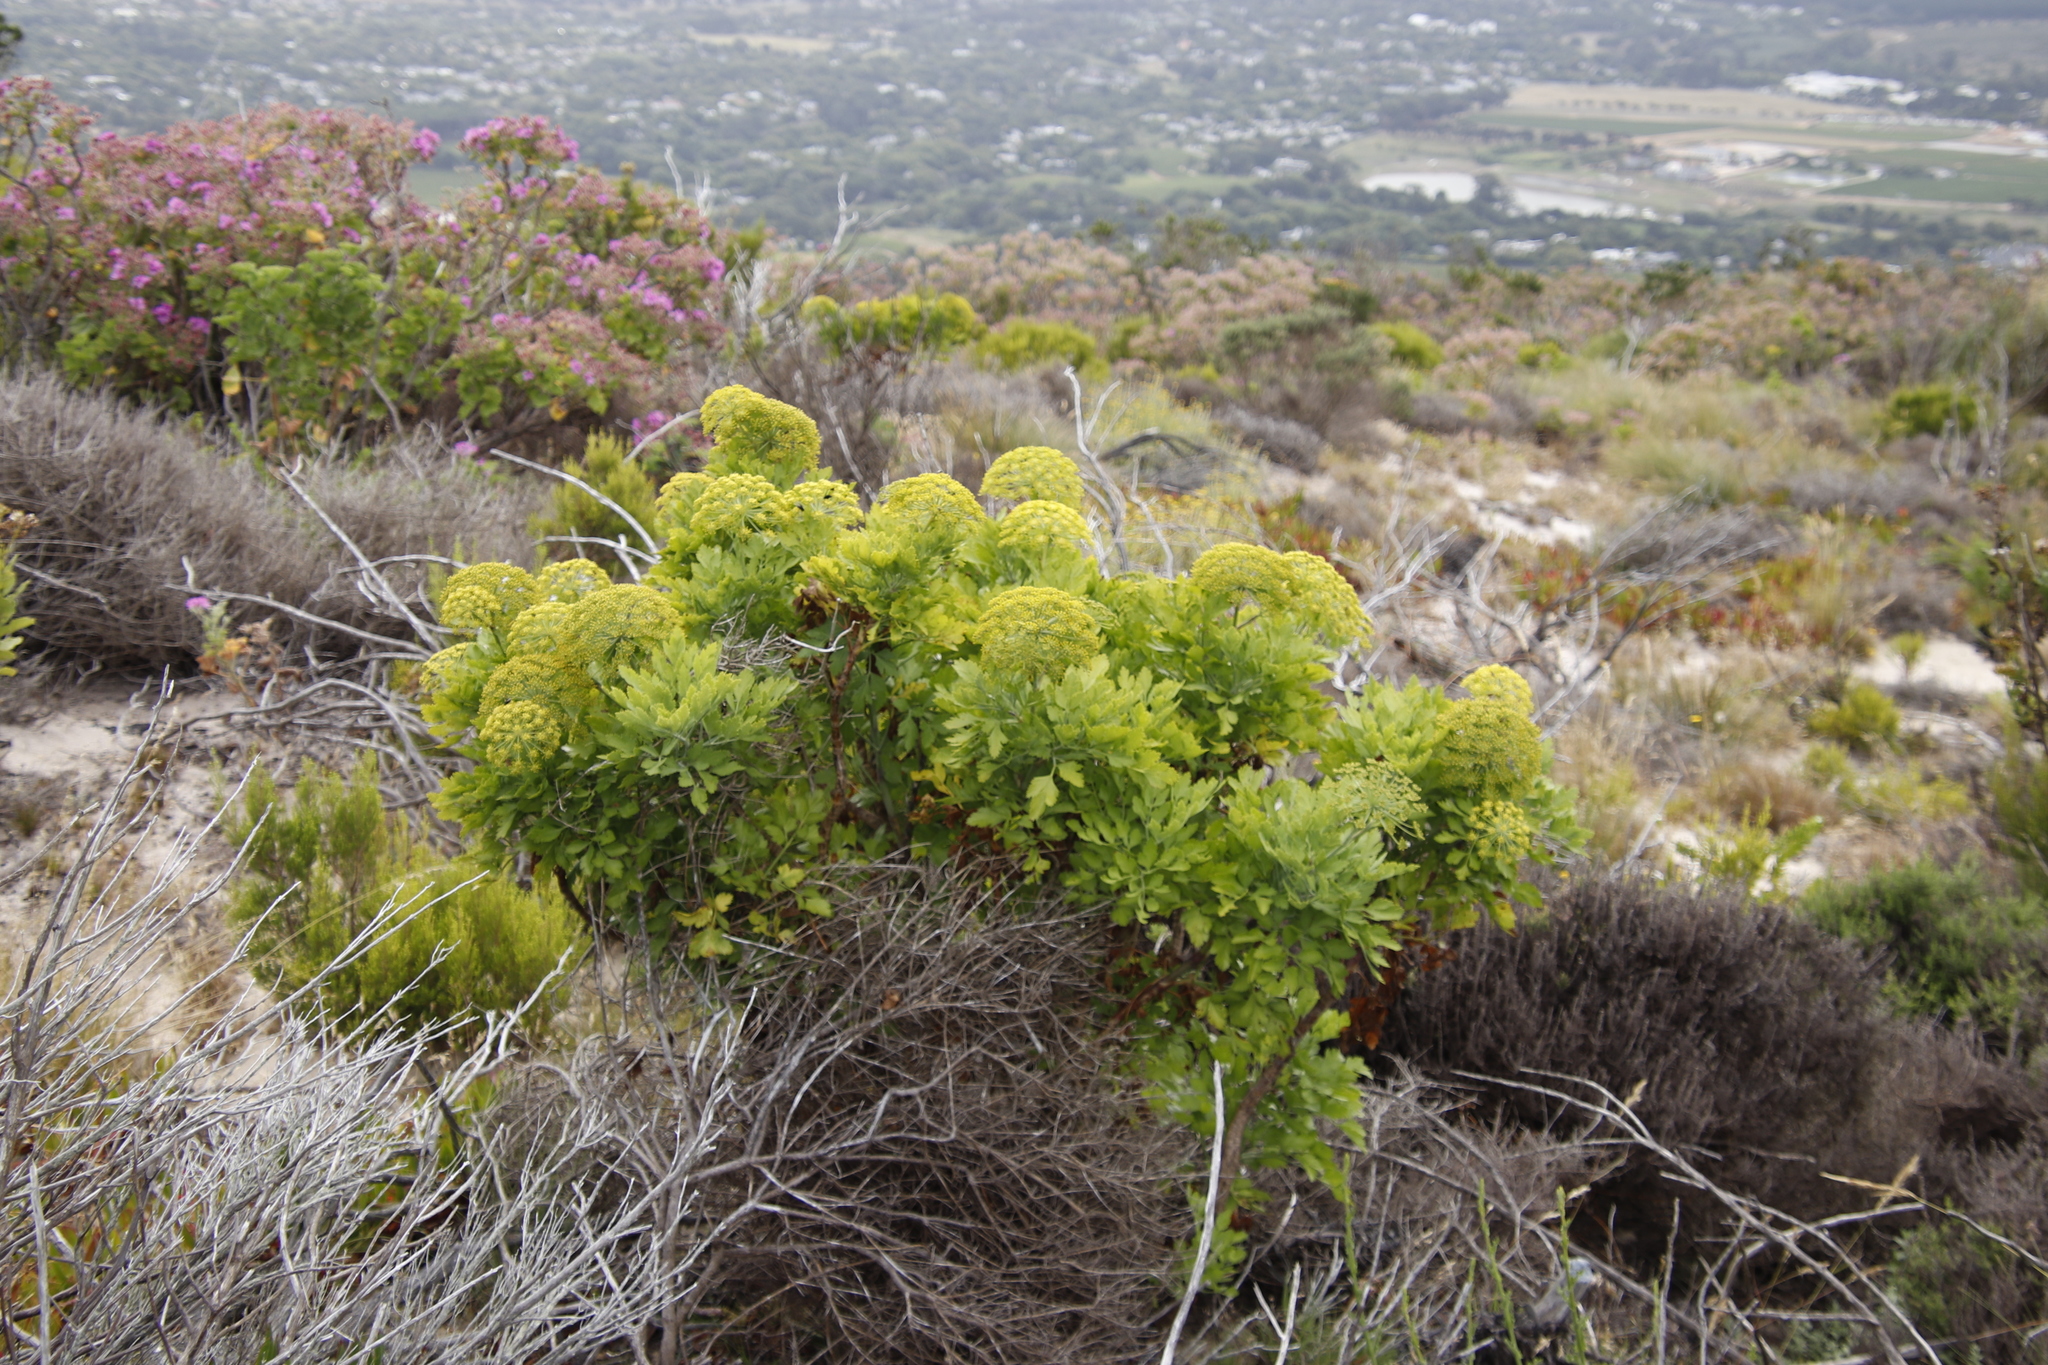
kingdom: Plantae
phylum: Tracheophyta
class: Magnoliopsida
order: Apiales
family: Apiaceae
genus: Notobubon
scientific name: Notobubon galbanum
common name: Blisterbush
